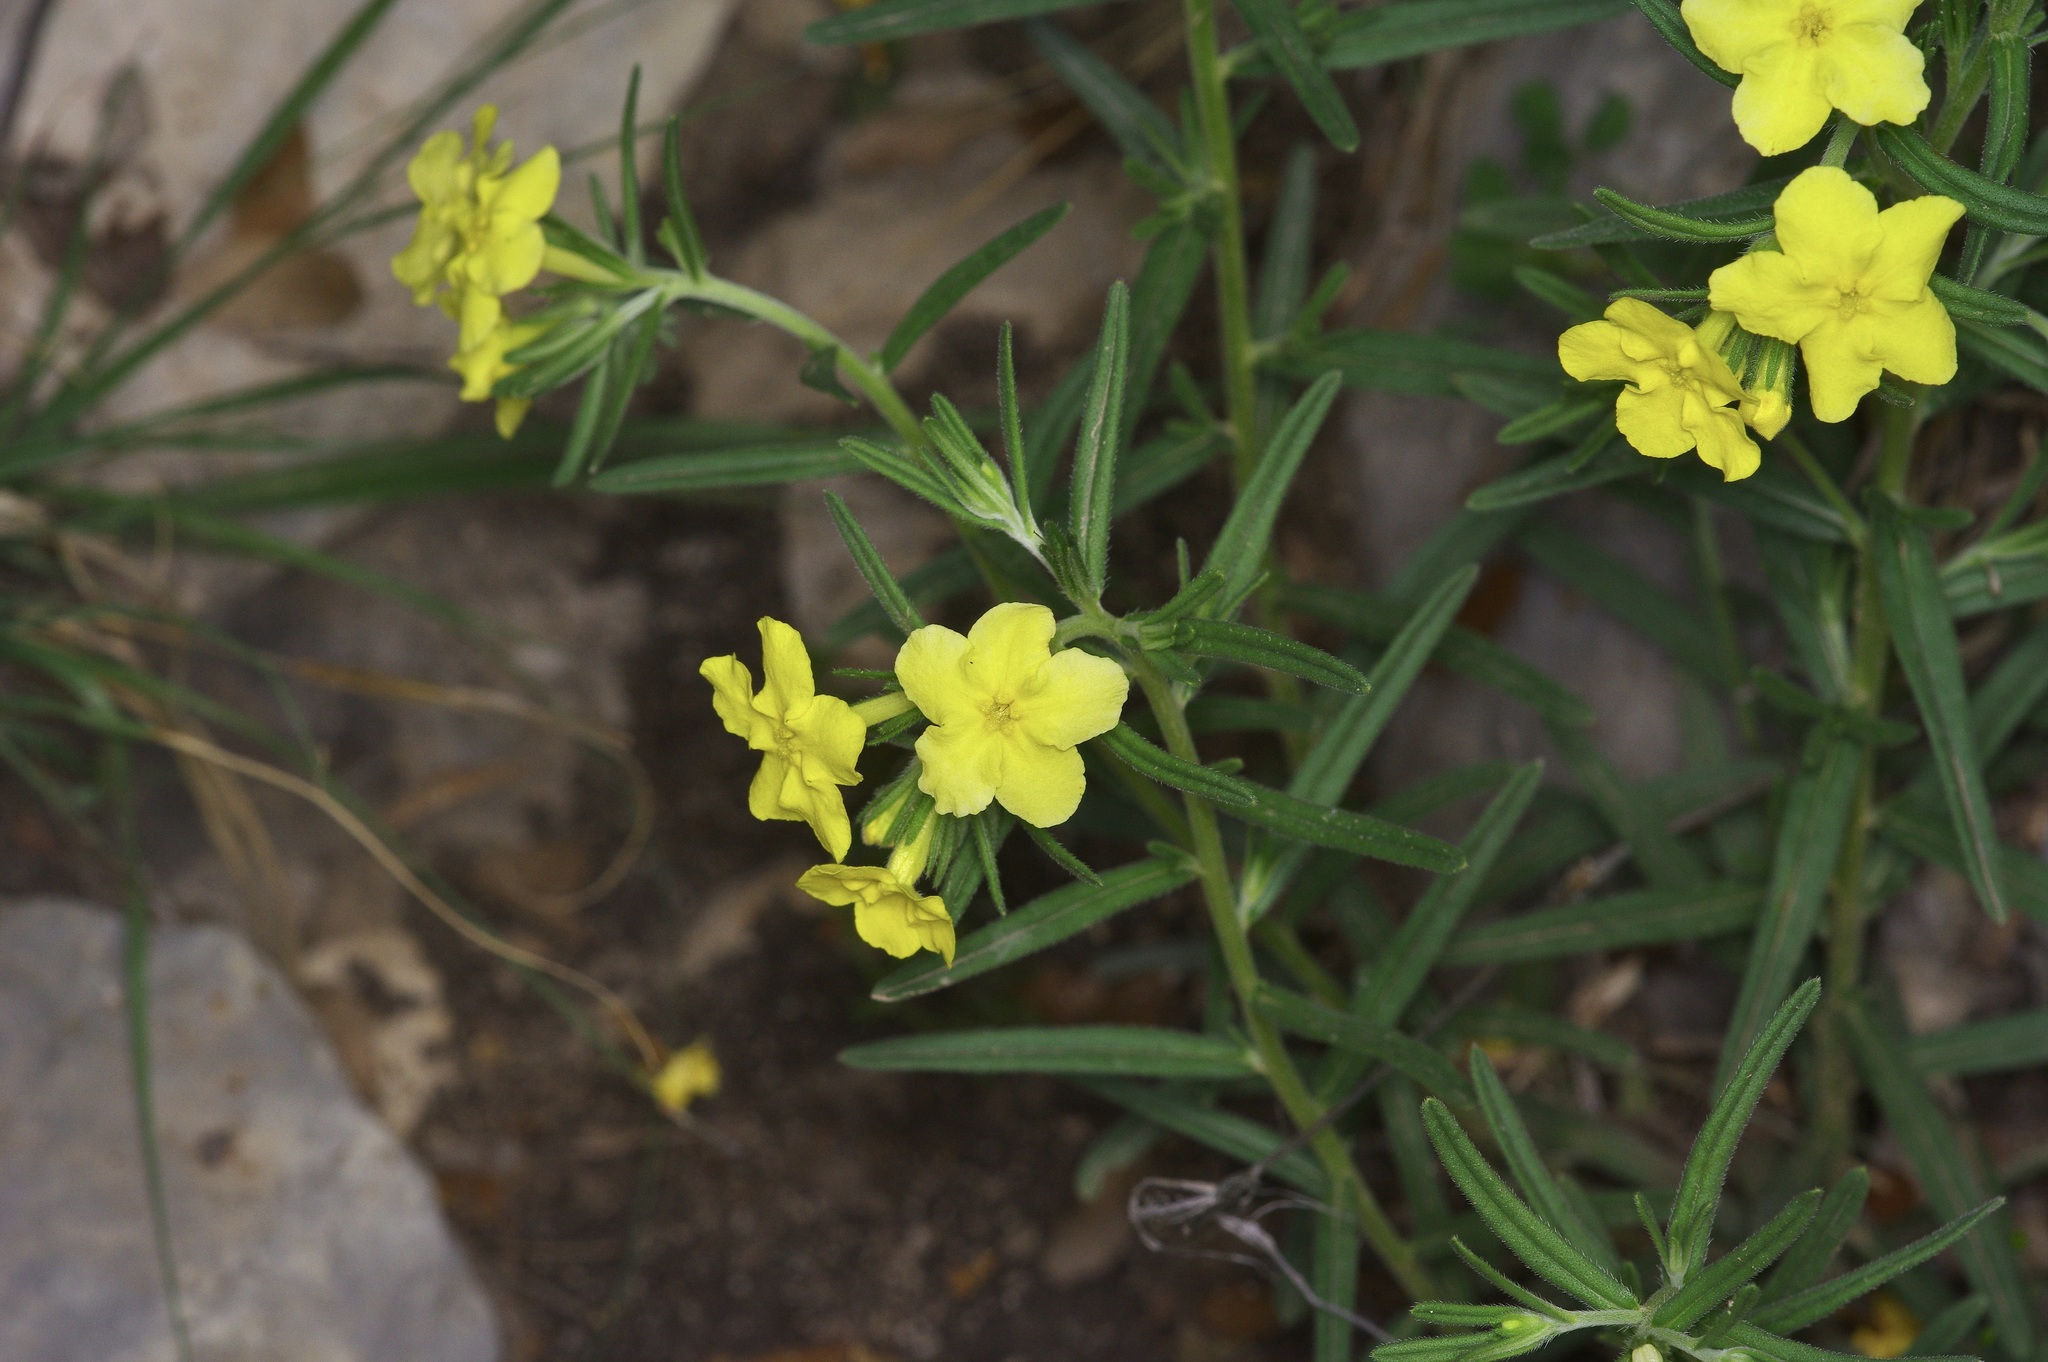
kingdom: Plantae
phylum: Tracheophyta
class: Magnoliopsida
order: Boraginales
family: Boraginaceae
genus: Lithospermum
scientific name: Lithospermum mirabile
